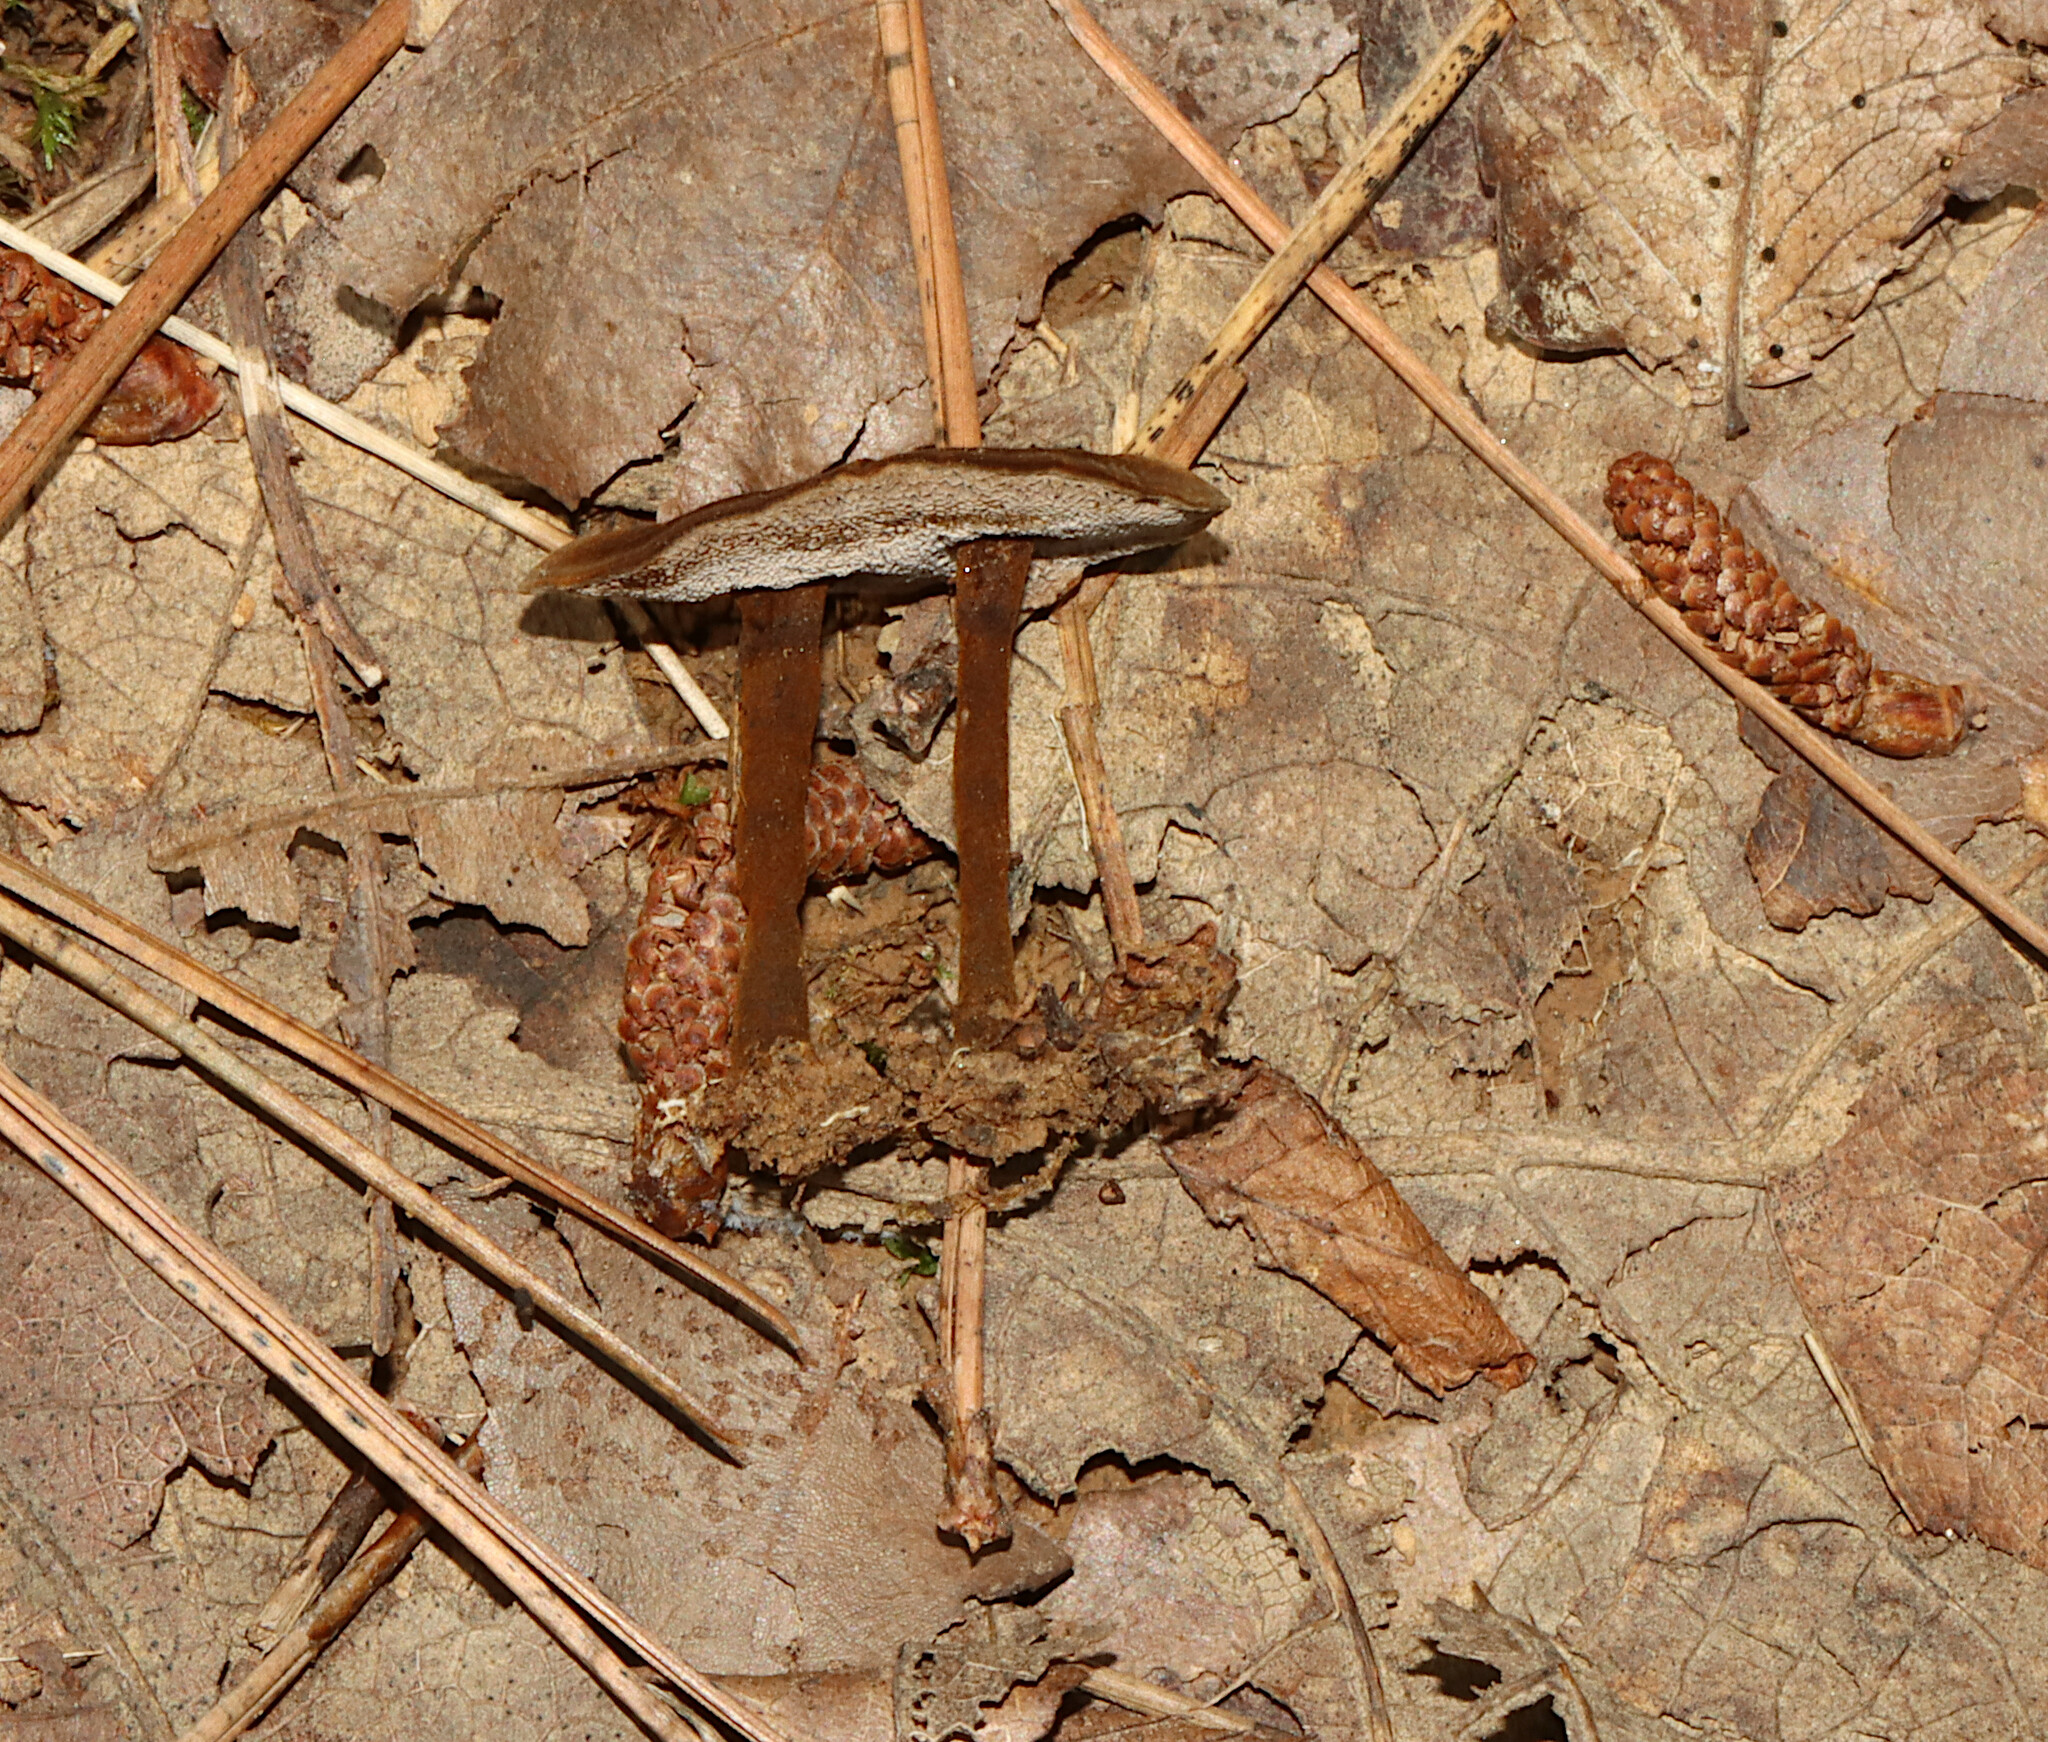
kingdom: Fungi
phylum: Basidiomycota
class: Agaricomycetes
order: Hymenochaetales
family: Hymenochaetaceae
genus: Coltricia
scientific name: Coltricia cinnamomea
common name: Shiny cinnamon polypore
